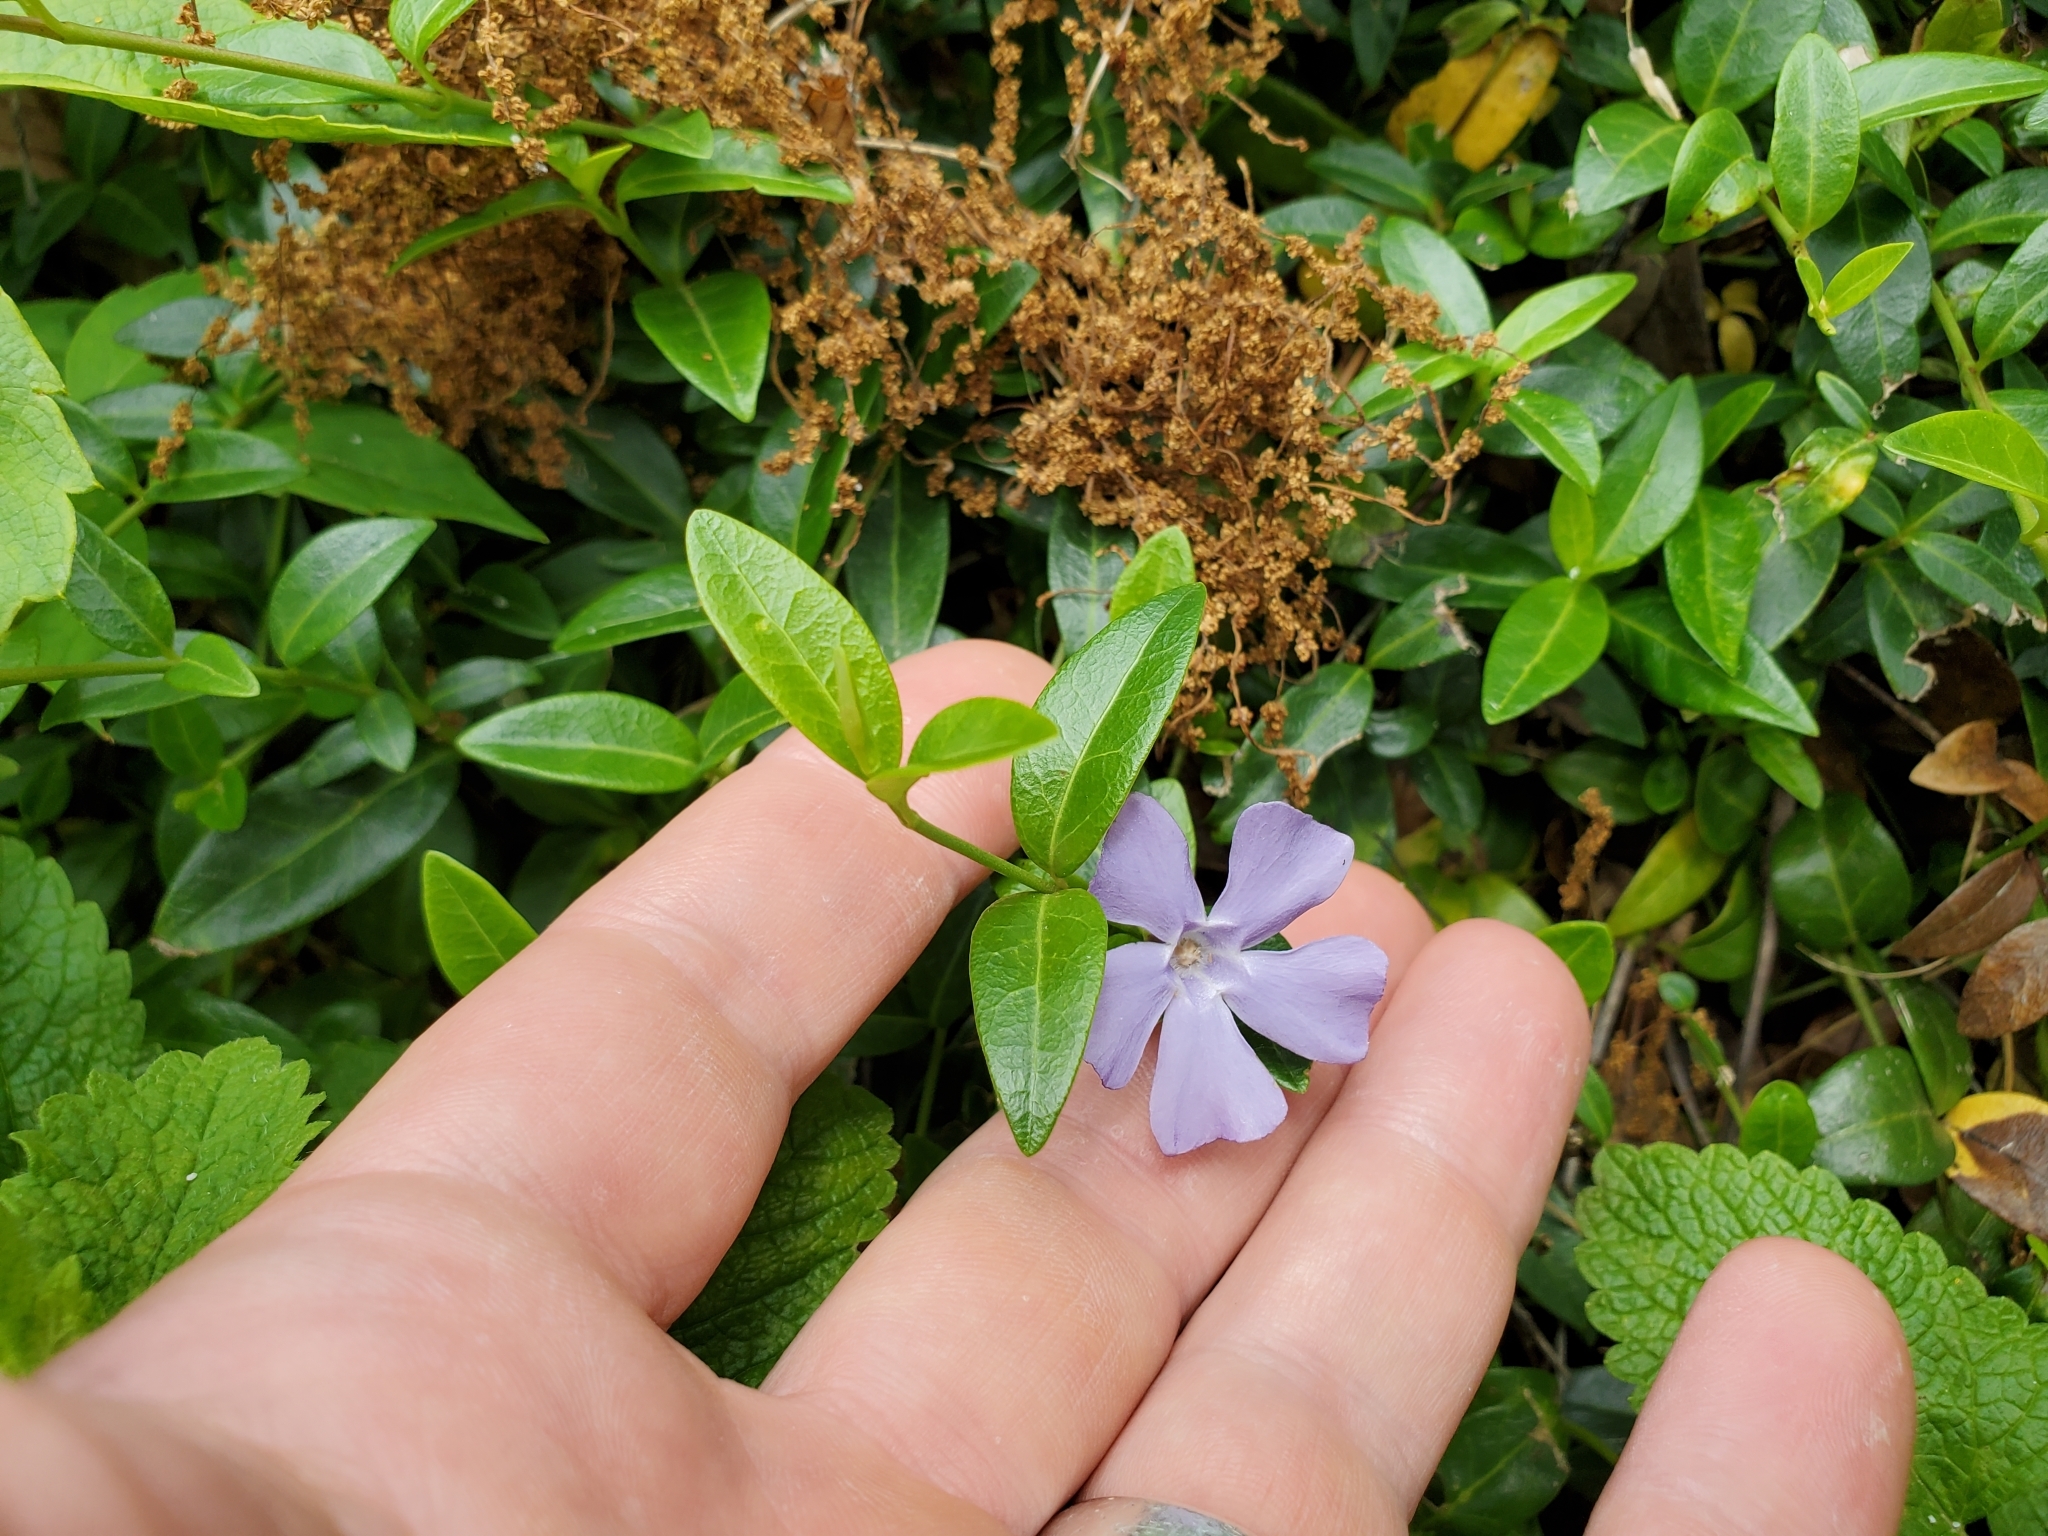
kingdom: Plantae
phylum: Tracheophyta
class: Magnoliopsida
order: Gentianales
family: Apocynaceae
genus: Vinca
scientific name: Vinca minor
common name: Lesser periwinkle
